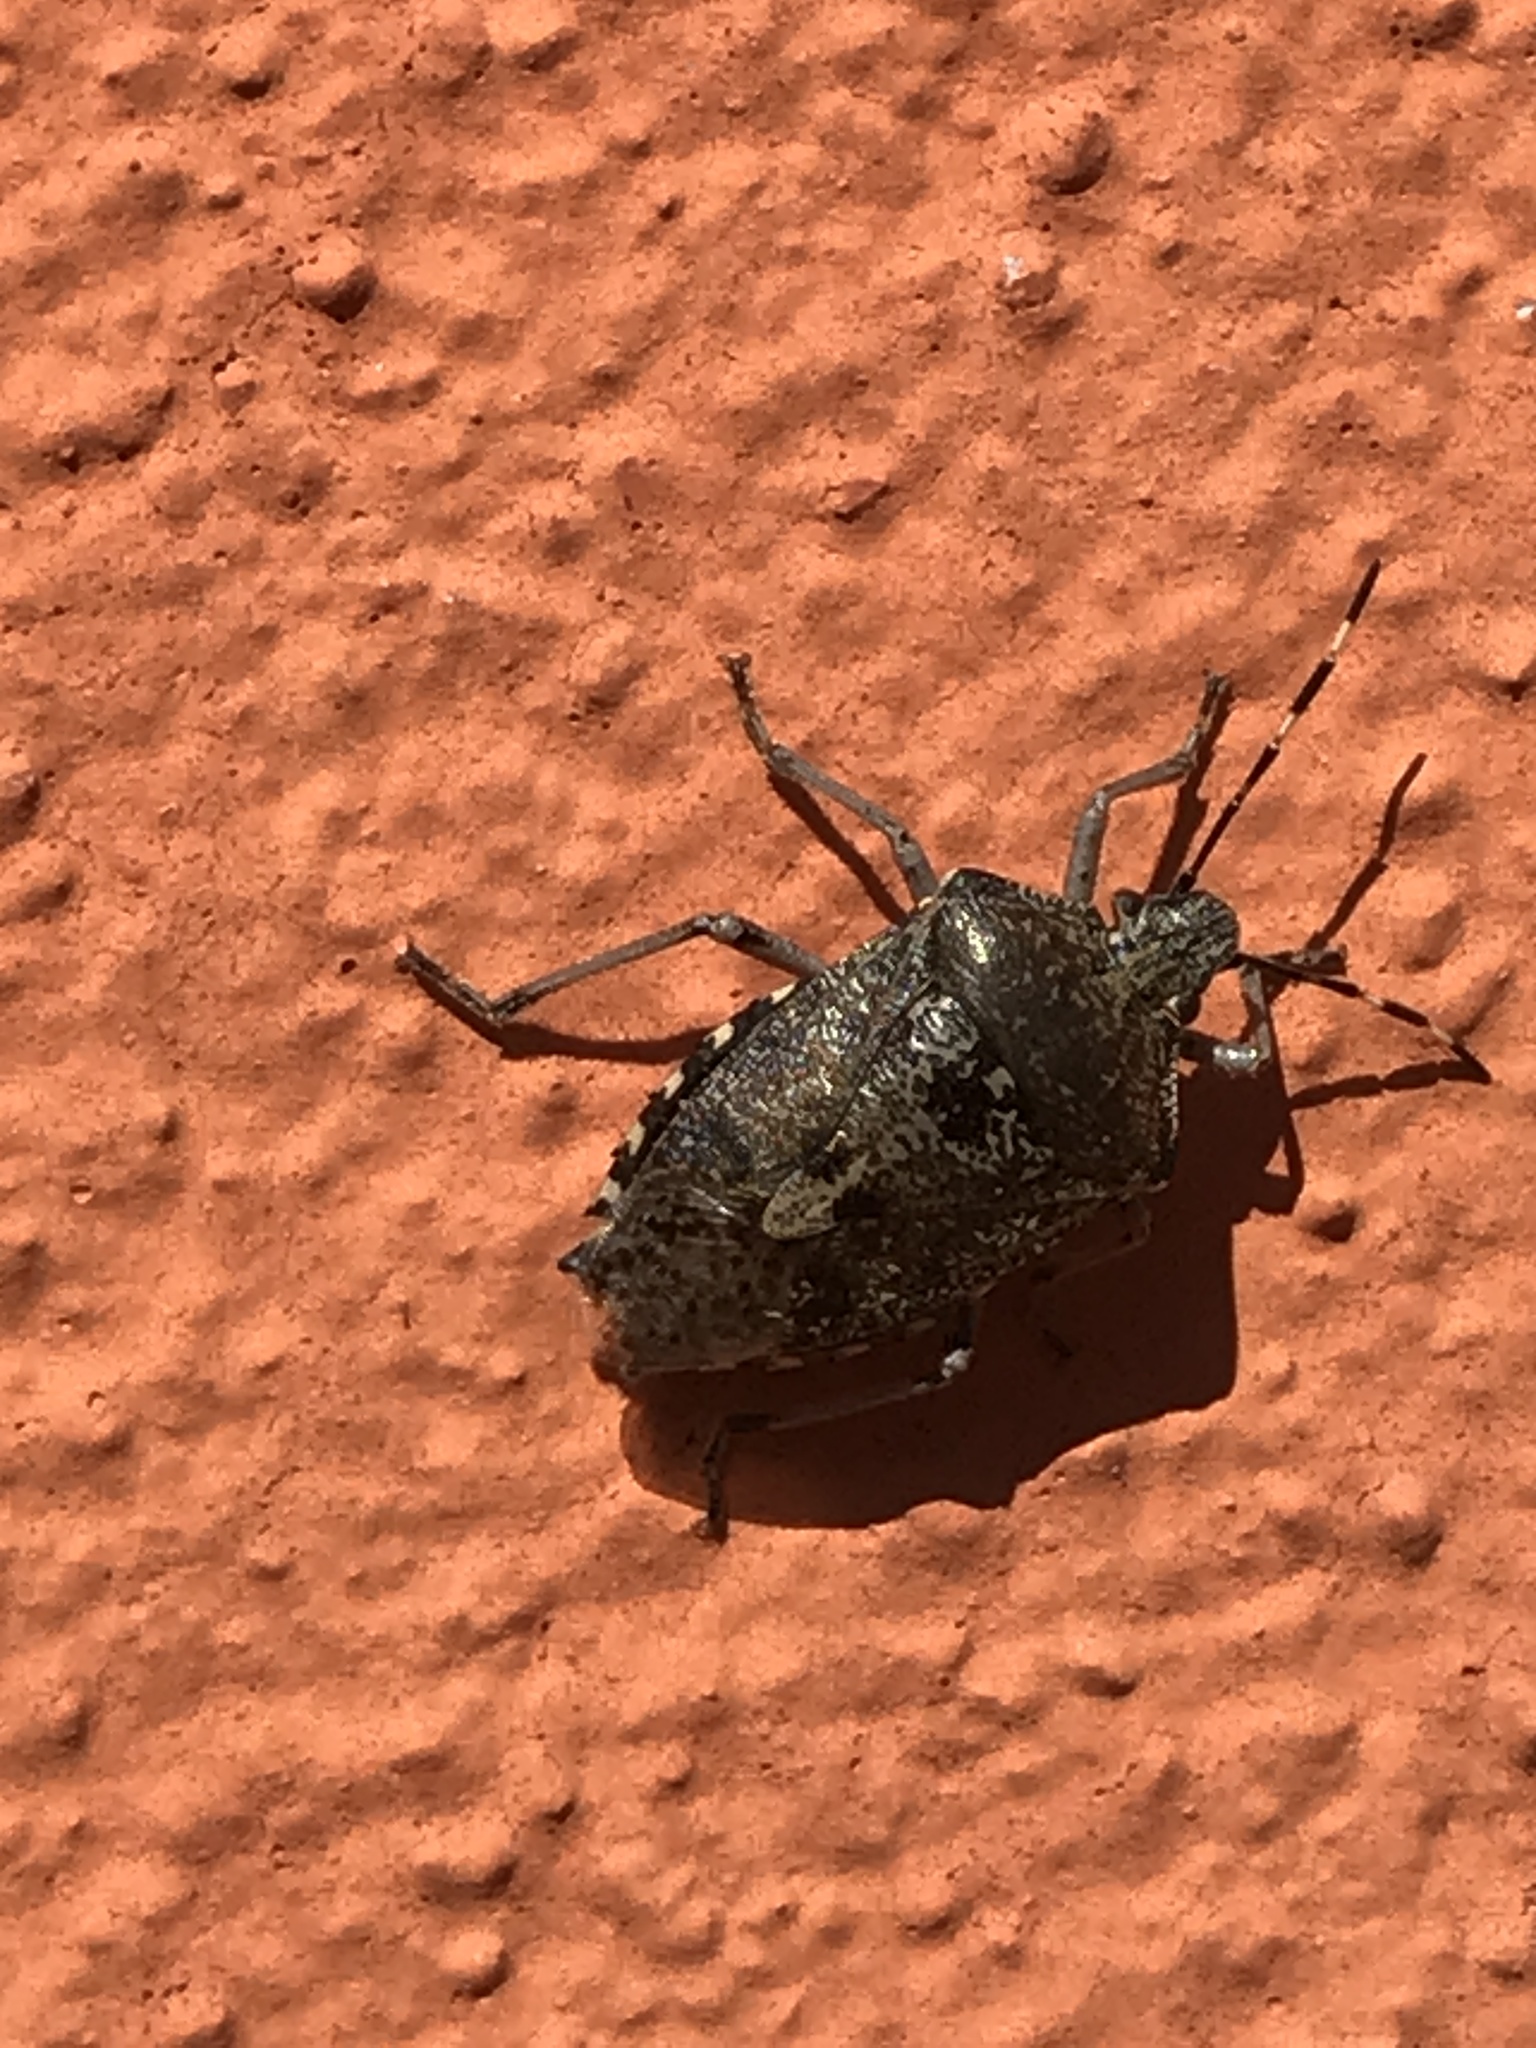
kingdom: Animalia
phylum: Arthropoda
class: Insecta
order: Hemiptera
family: Pentatomidae
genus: Rhaphigaster
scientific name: Rhaphigaster nebulosa
